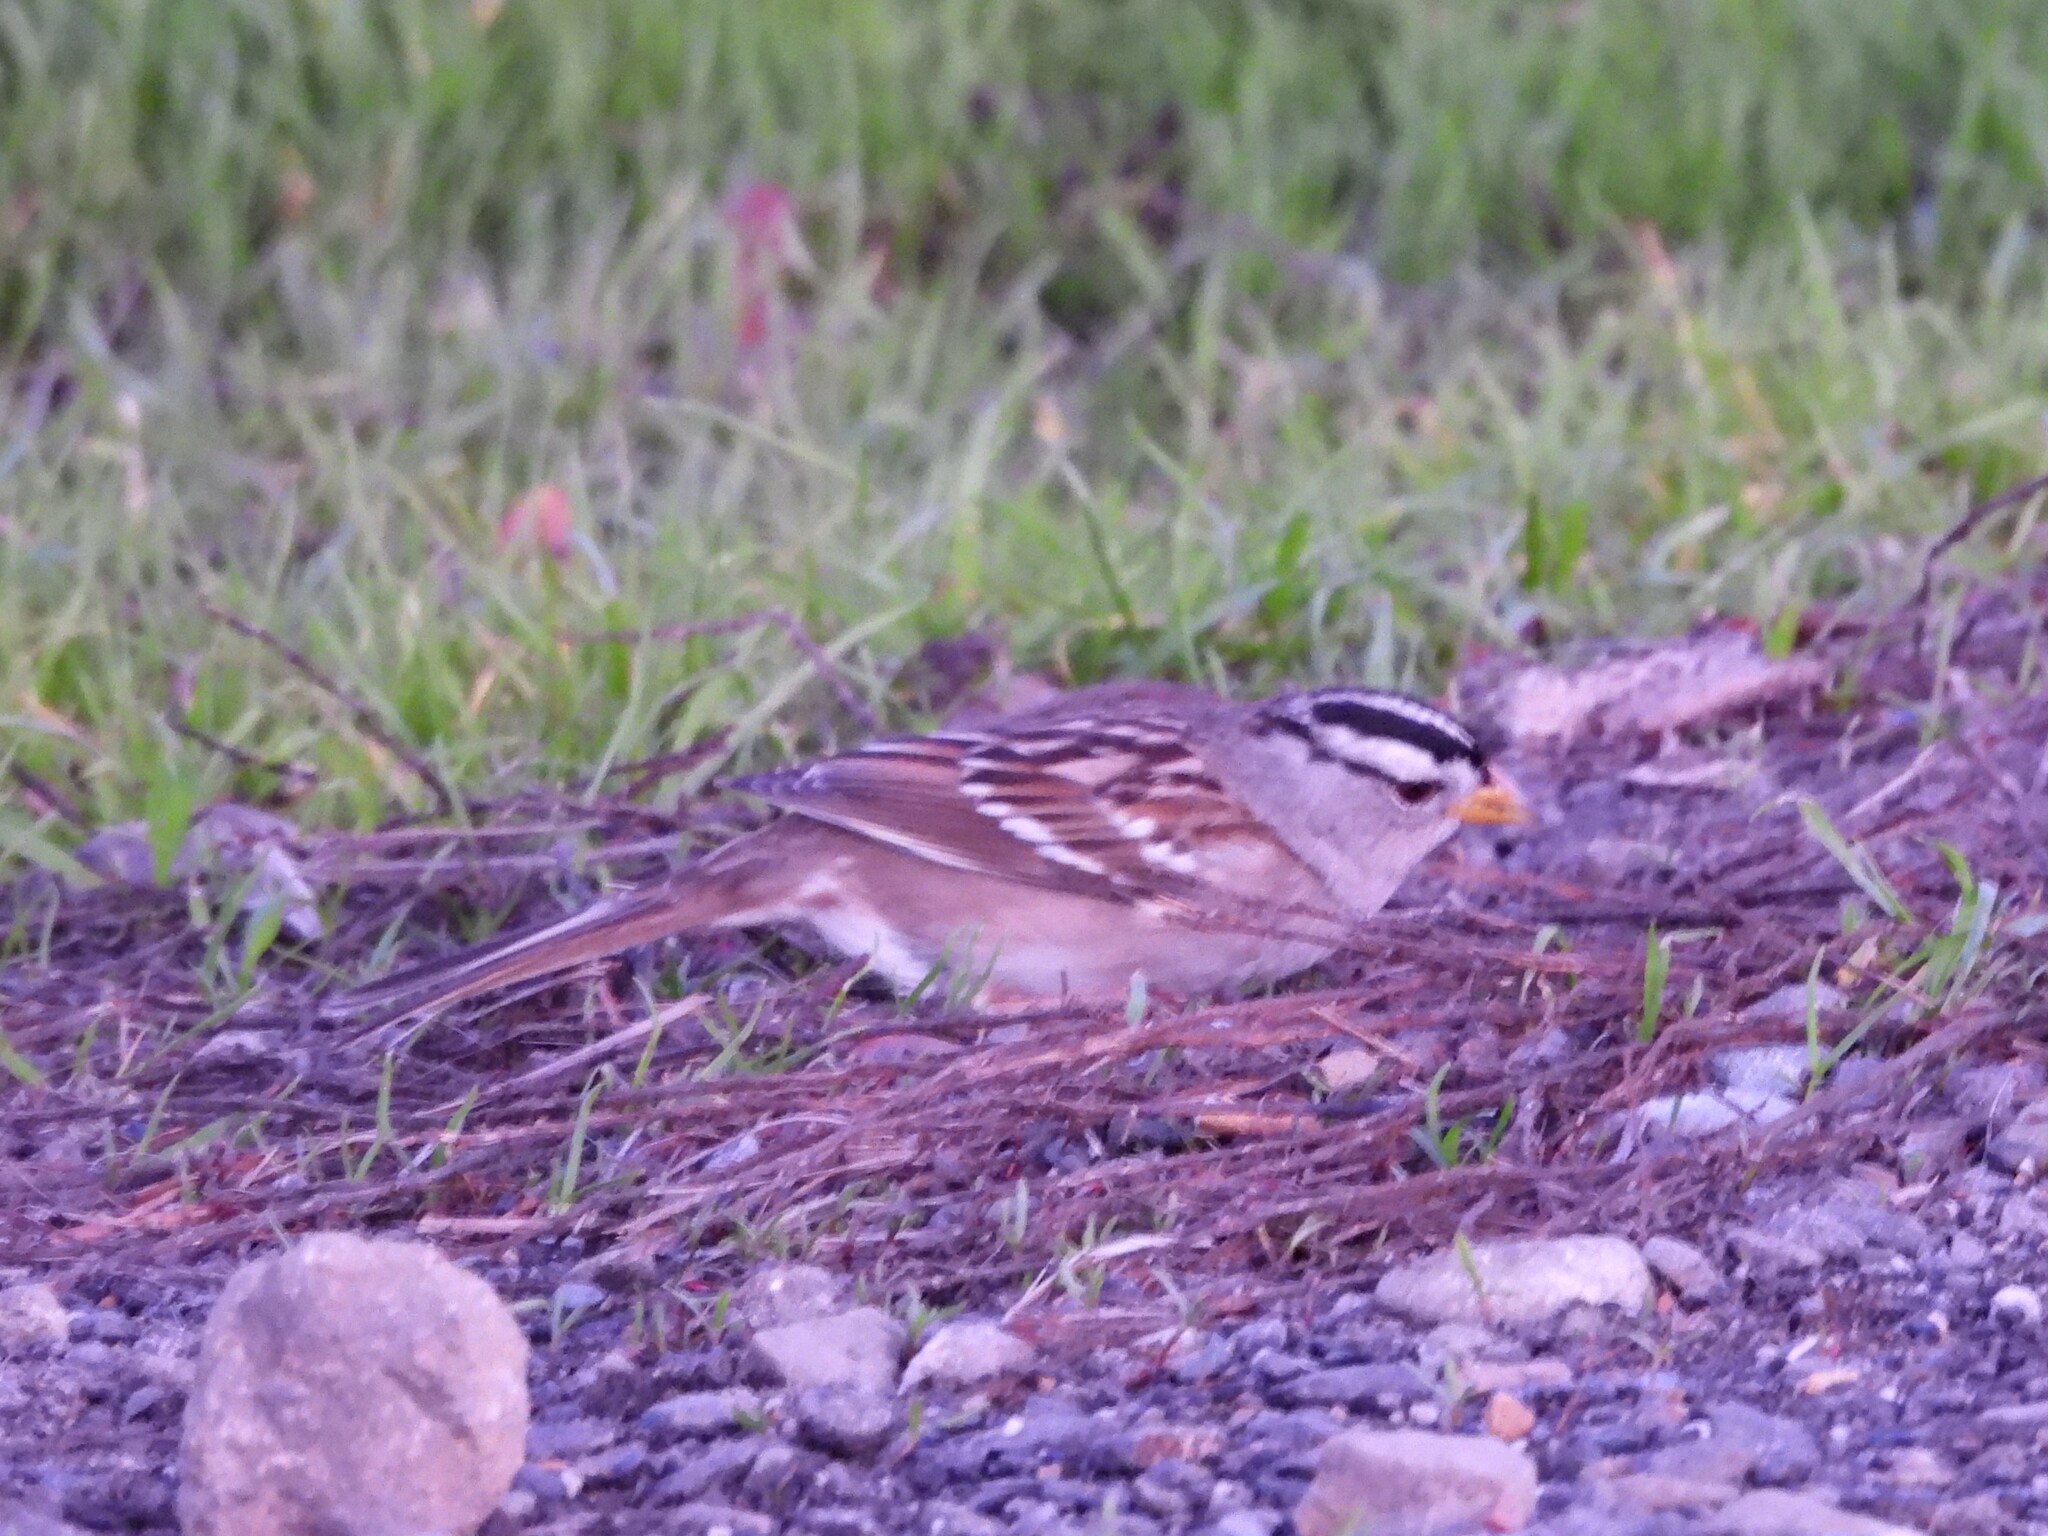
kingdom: Animalia
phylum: Chordata
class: Aves
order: Passeriformes
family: Passerellidae
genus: Zonotrichia
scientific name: Zonotrichia leucophrys
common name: White-crowned sparrow
